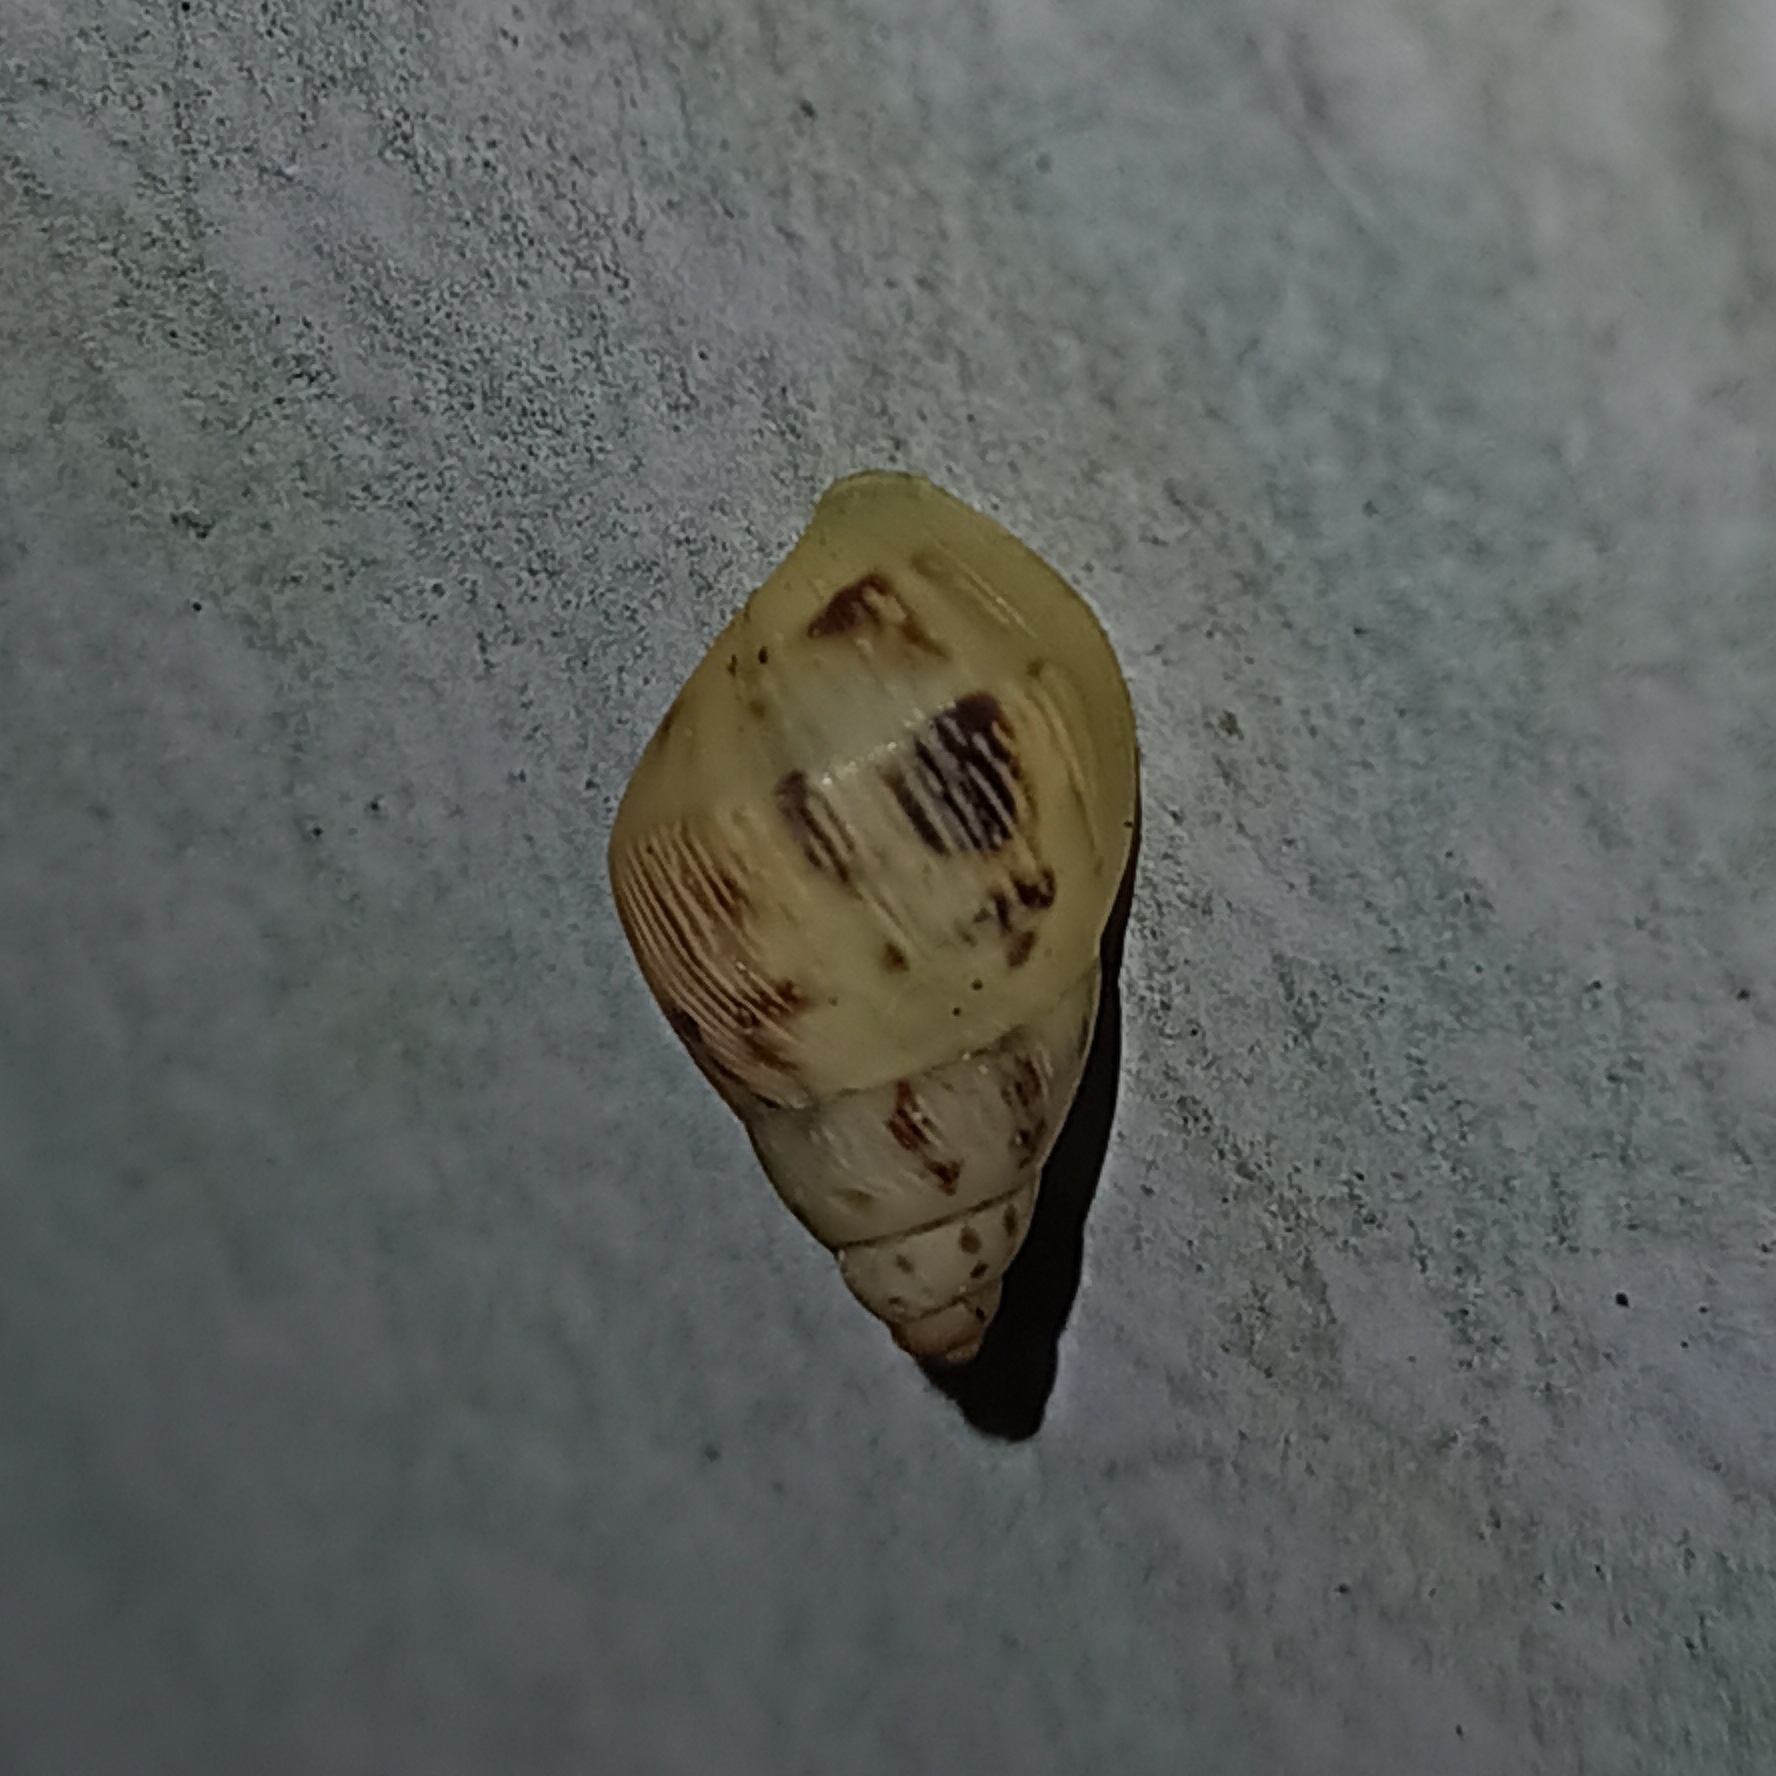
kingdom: Animalia
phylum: Mollusca
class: Gastropoda
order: Stylommatophora
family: Bulimulidae
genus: Drymaeus
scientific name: Drymaeus papyraceus
